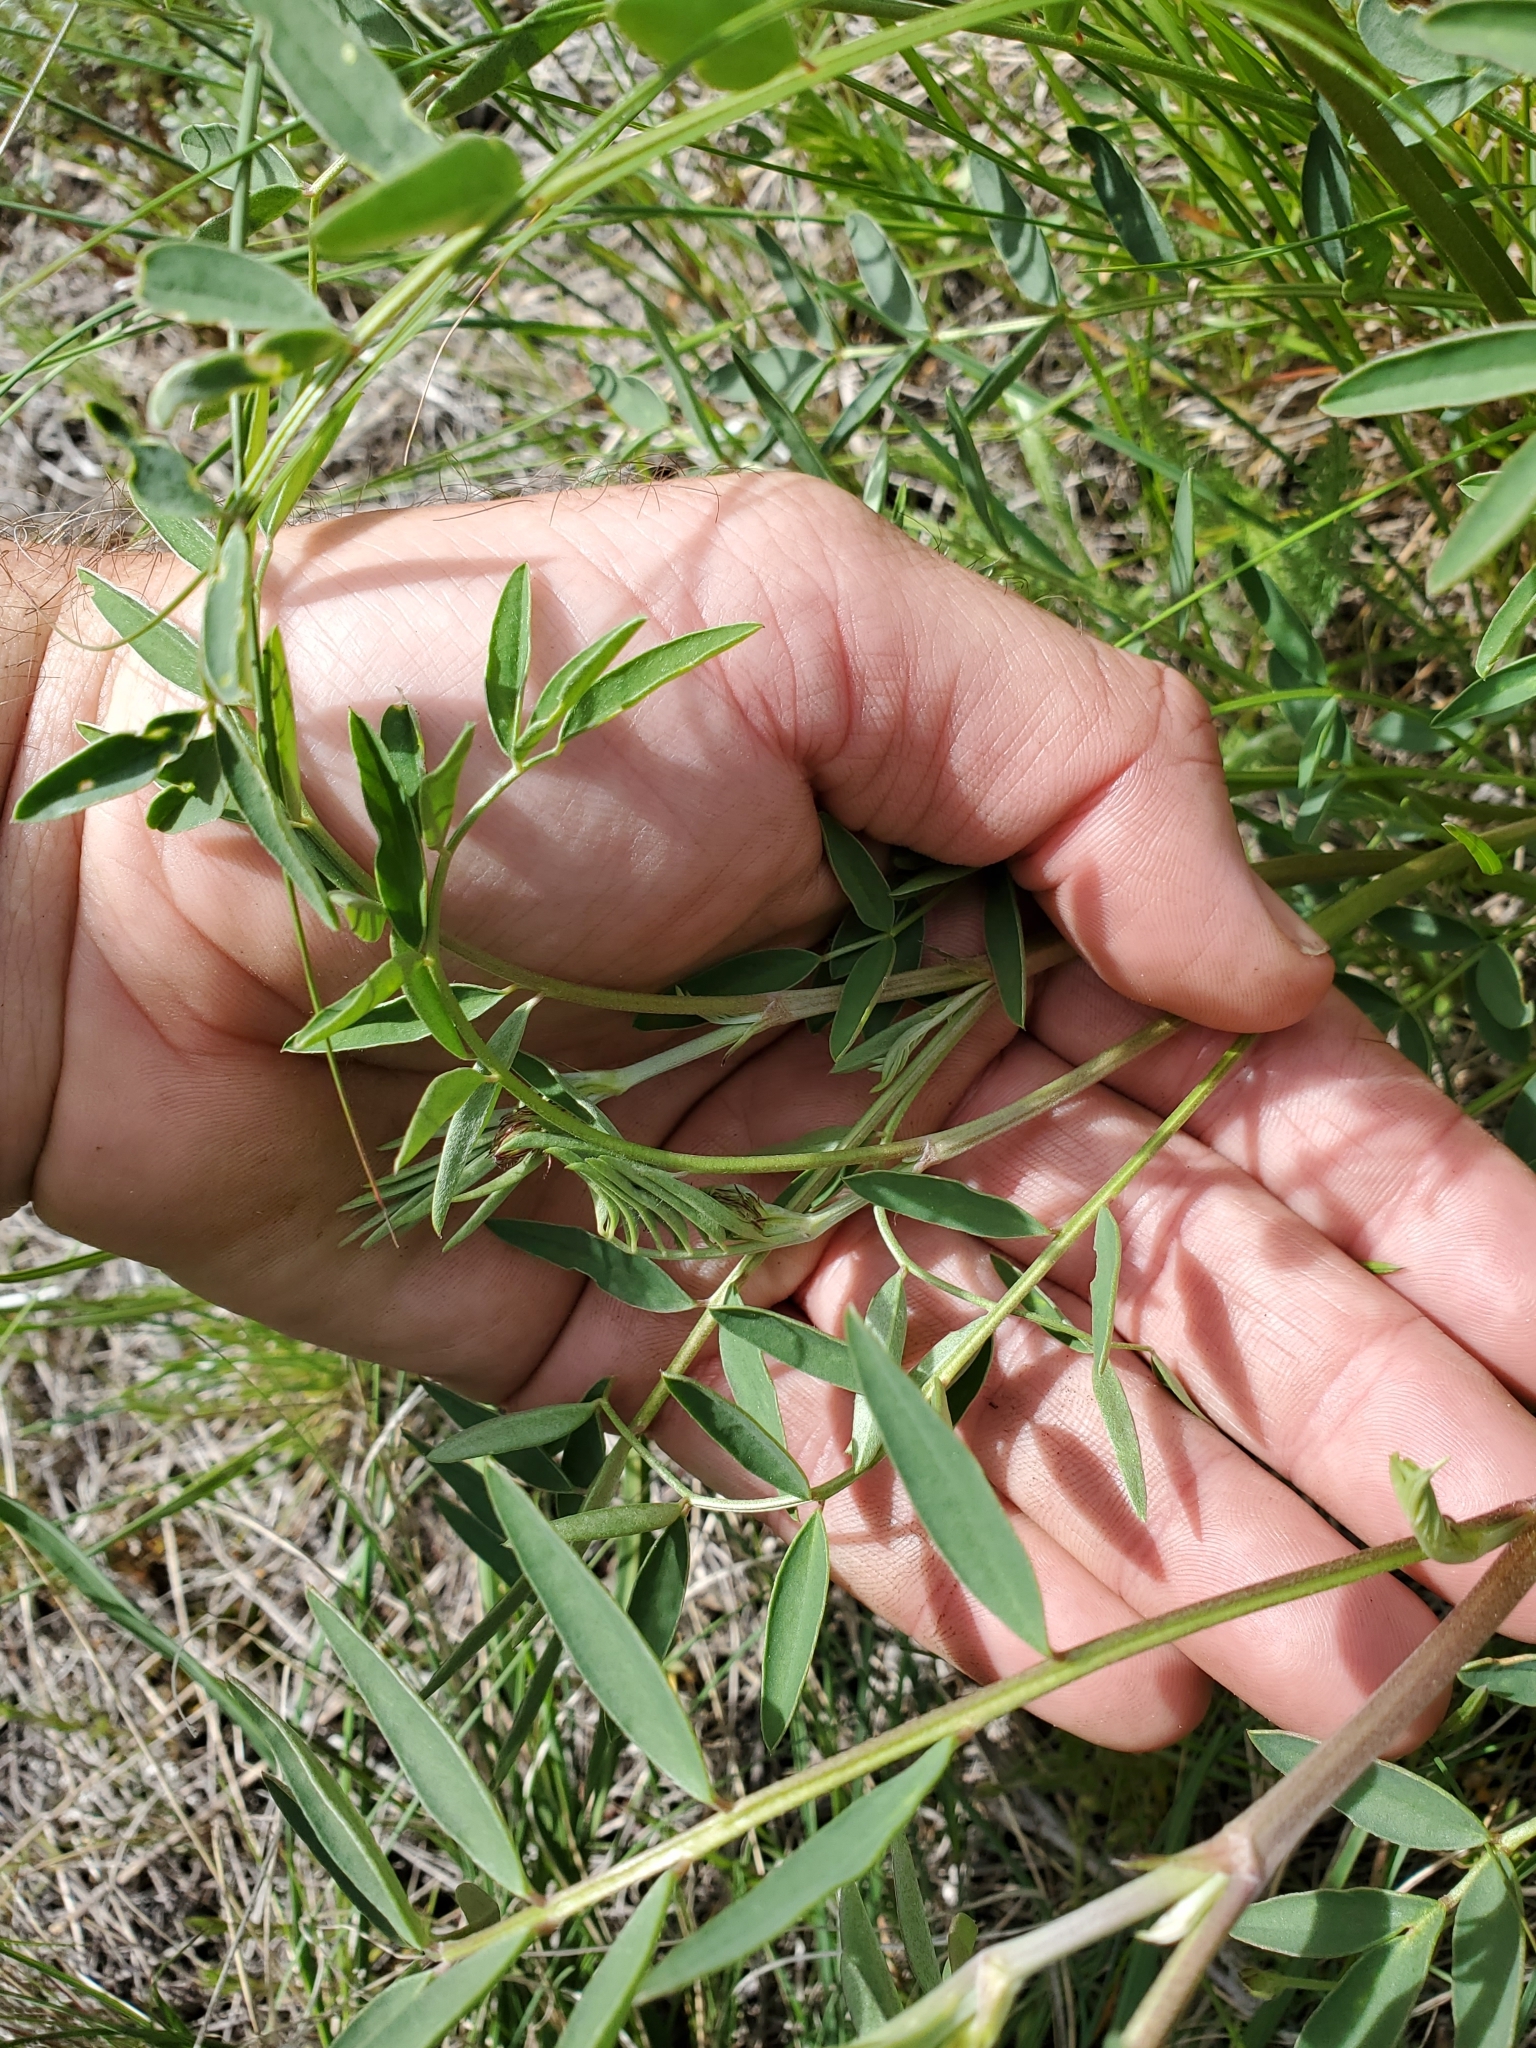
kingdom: Plantae
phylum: Tracheophyta
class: Magnoliopsida
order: Fabales
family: Fabaceae
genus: Hedysarum
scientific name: Hedysarum boreale
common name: Northern sweet-vetch
